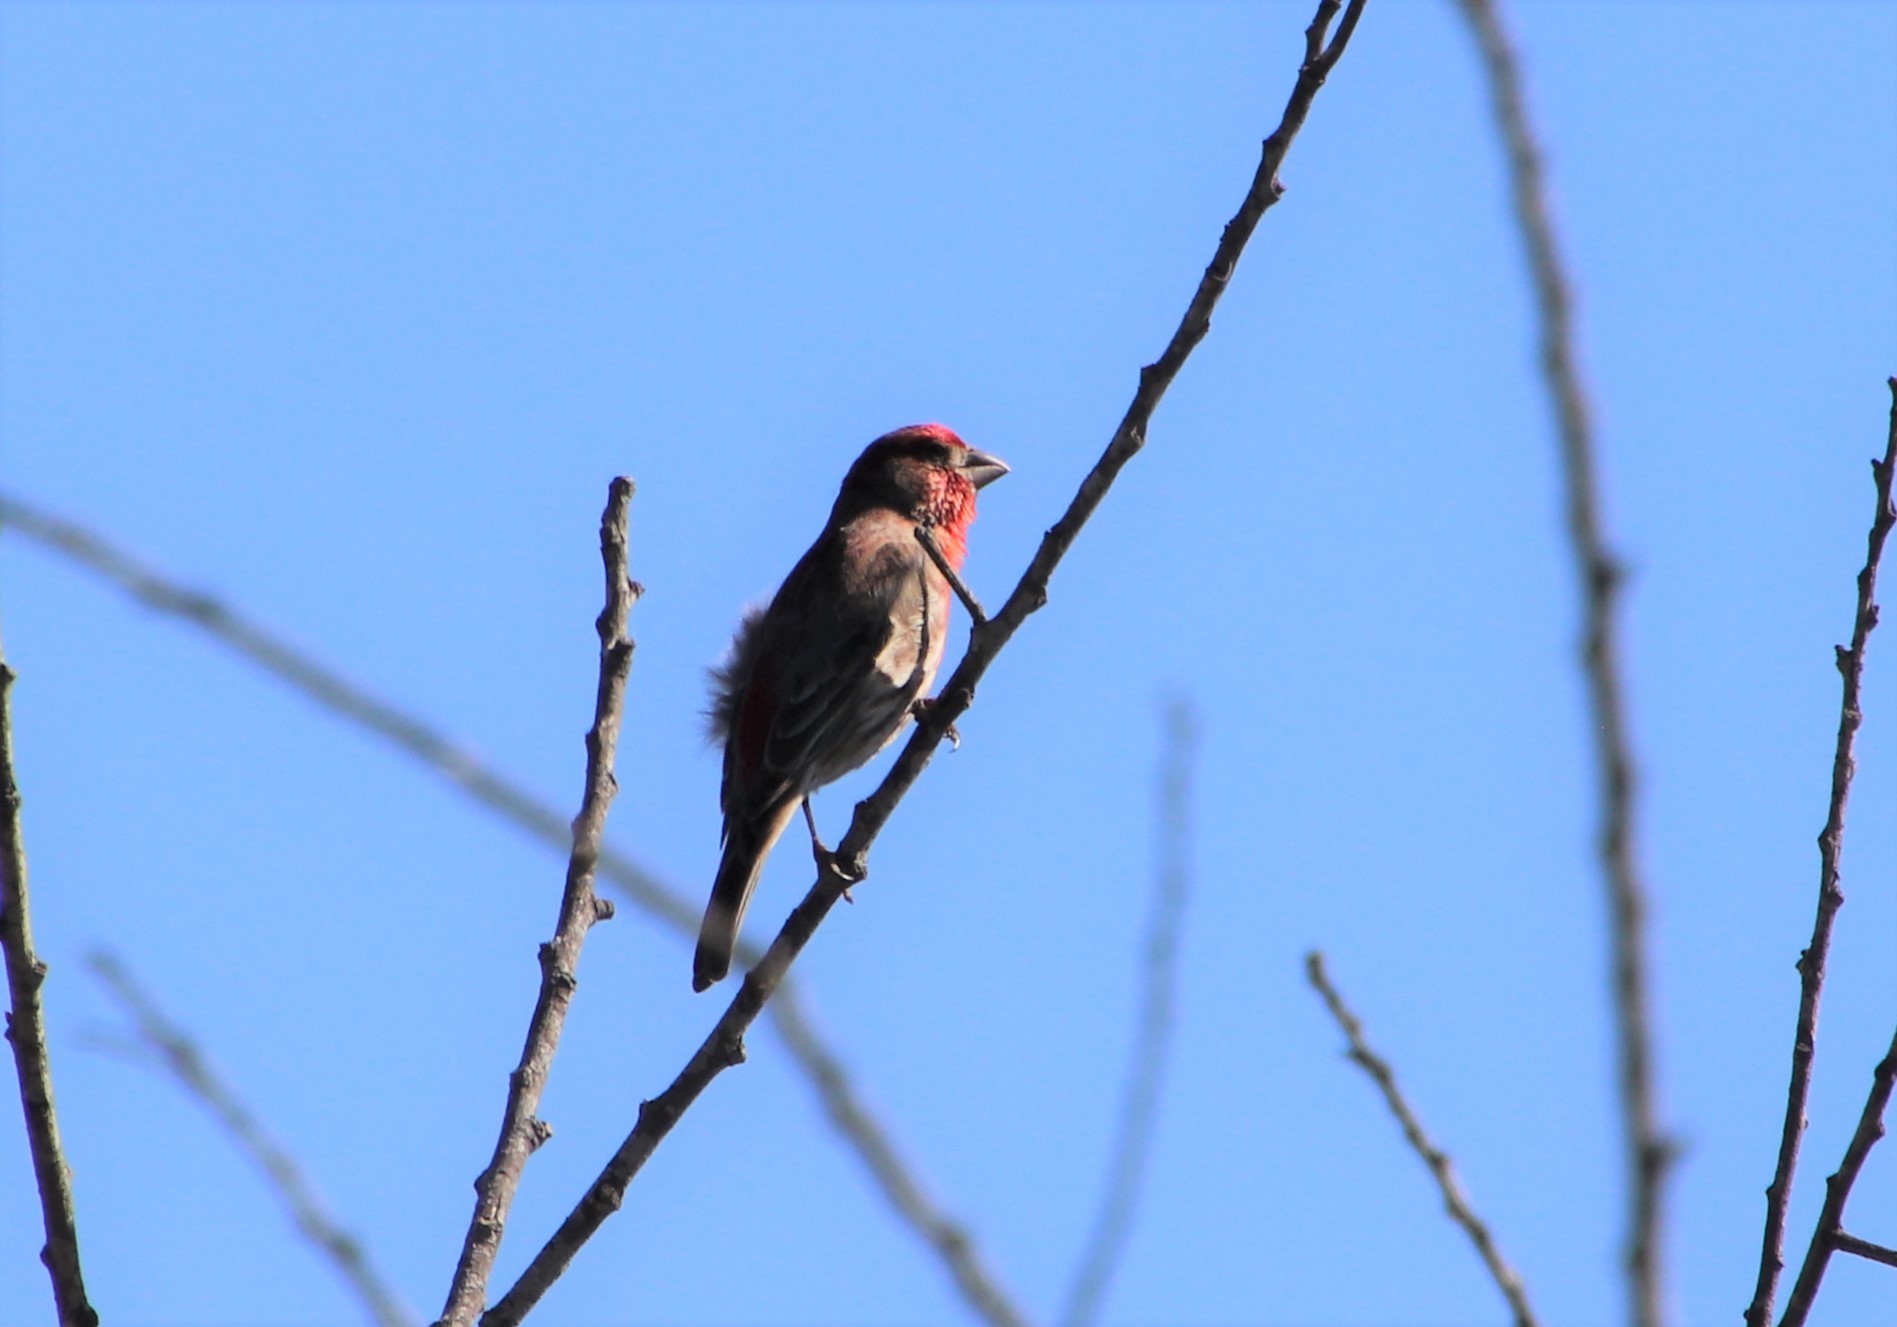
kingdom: Animalia
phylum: Chordata
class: Aves
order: Passeriformes
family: Fringillidae
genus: Haemorhous
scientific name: Haemorhous mexicanus
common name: House finch
